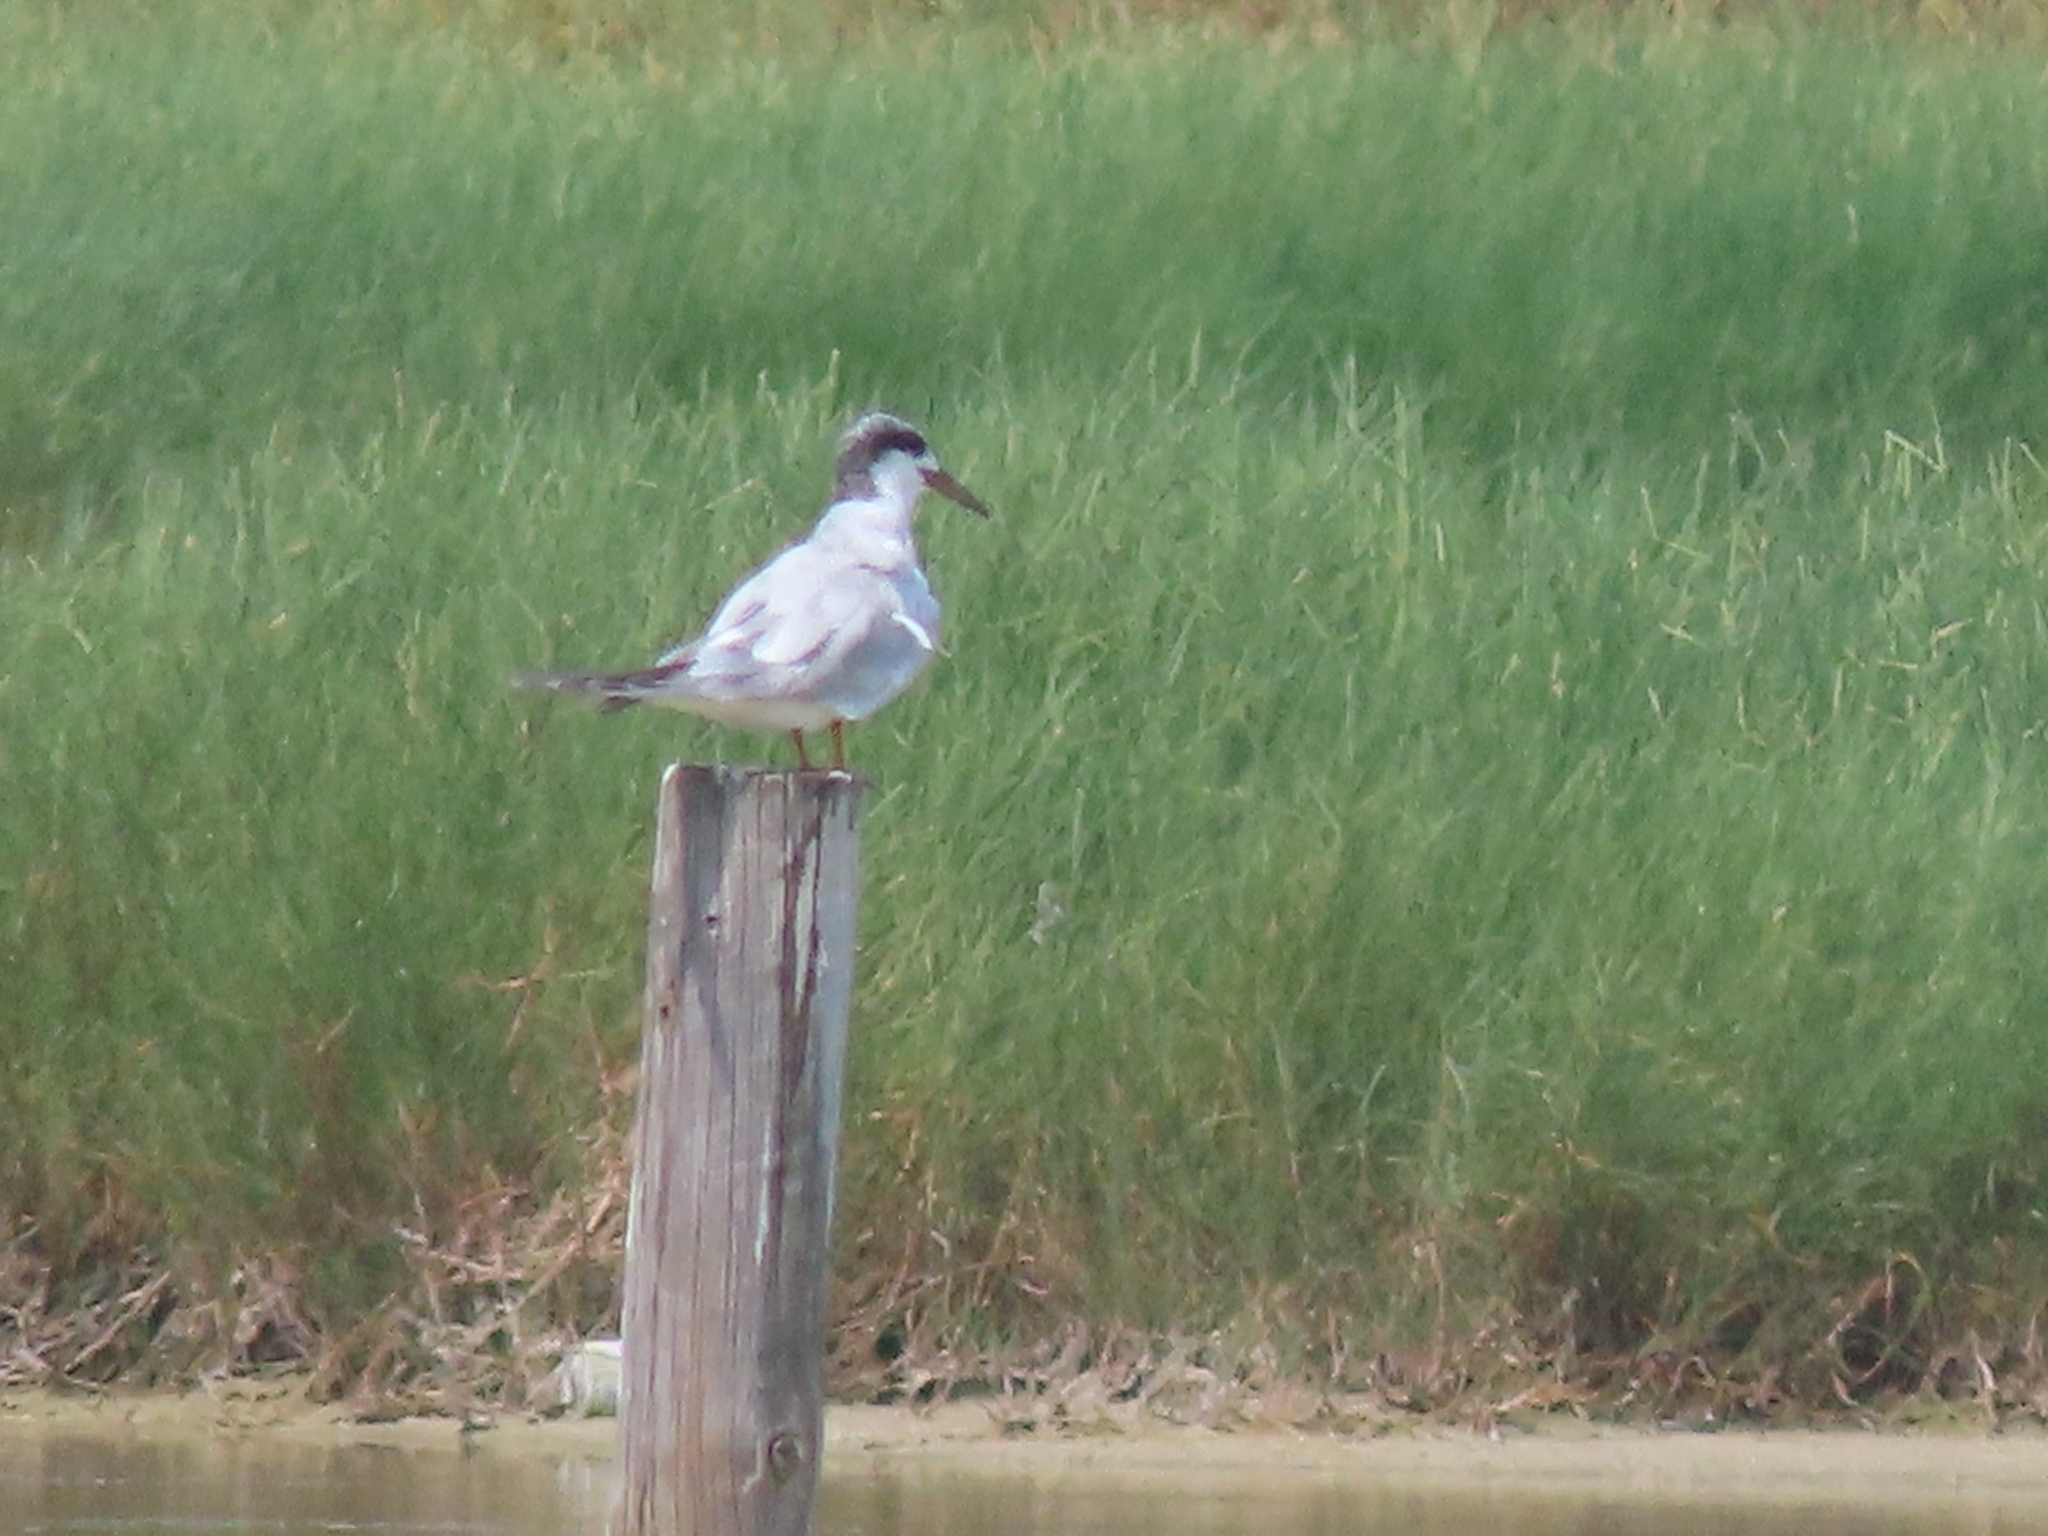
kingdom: Animalia
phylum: Chordata
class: Aves
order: Charadriiformes
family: Laridae
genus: Sterna
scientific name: Sterna forsteri
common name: Forster's tern
